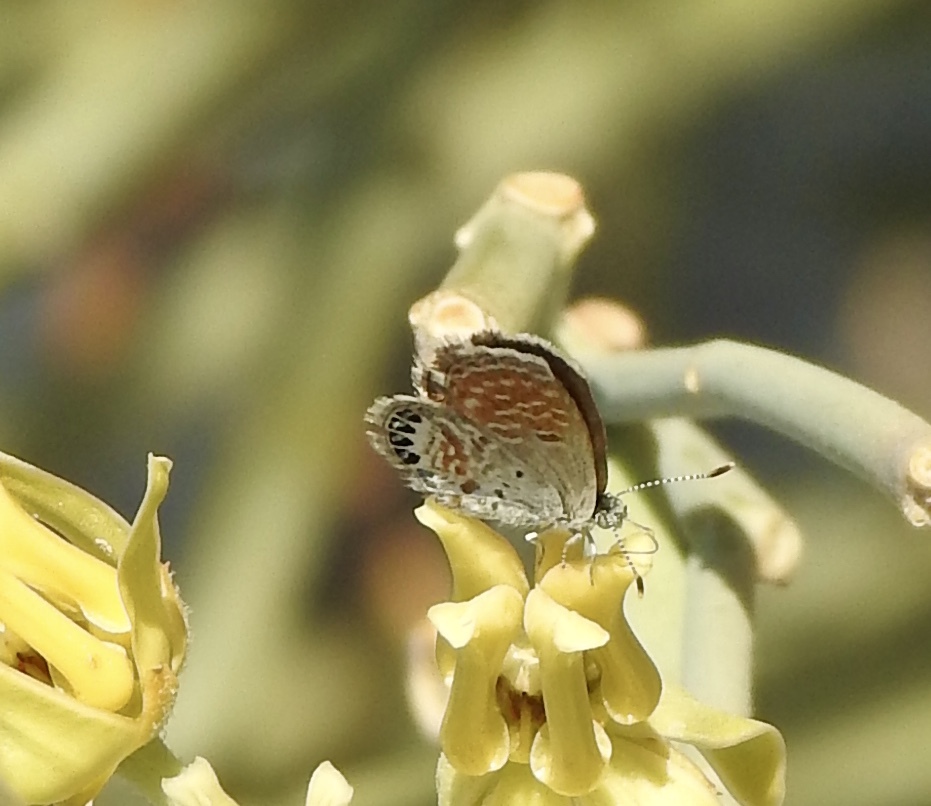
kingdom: Animalia
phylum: Arthropoda
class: Insecta
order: Lepidoptera
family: Lycaenidae
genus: Brephidium
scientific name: Brephidium exilis
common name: Pygmy blue
